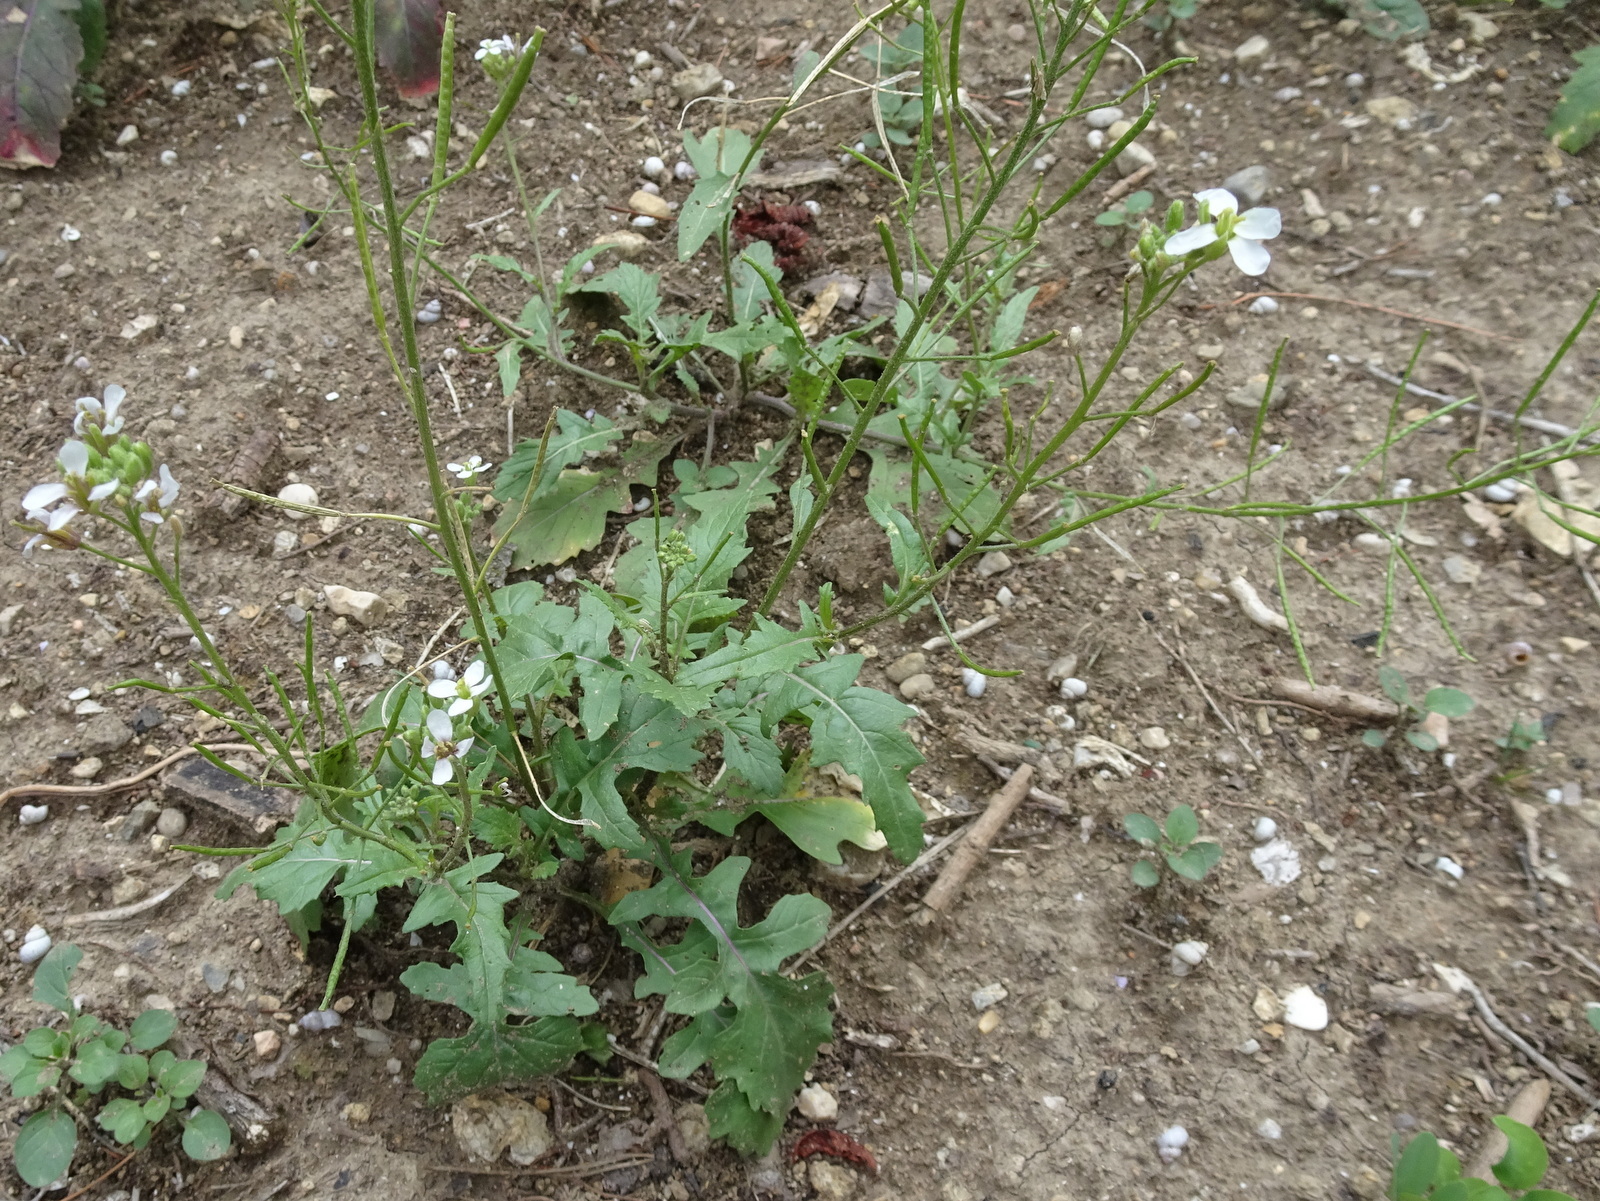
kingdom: Plantae
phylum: Tracheophyta
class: Magnoliopsida
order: Brassicales
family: Brassicaceae
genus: Diplotaxis
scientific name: Diplotaxis erucoides
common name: White rocket
